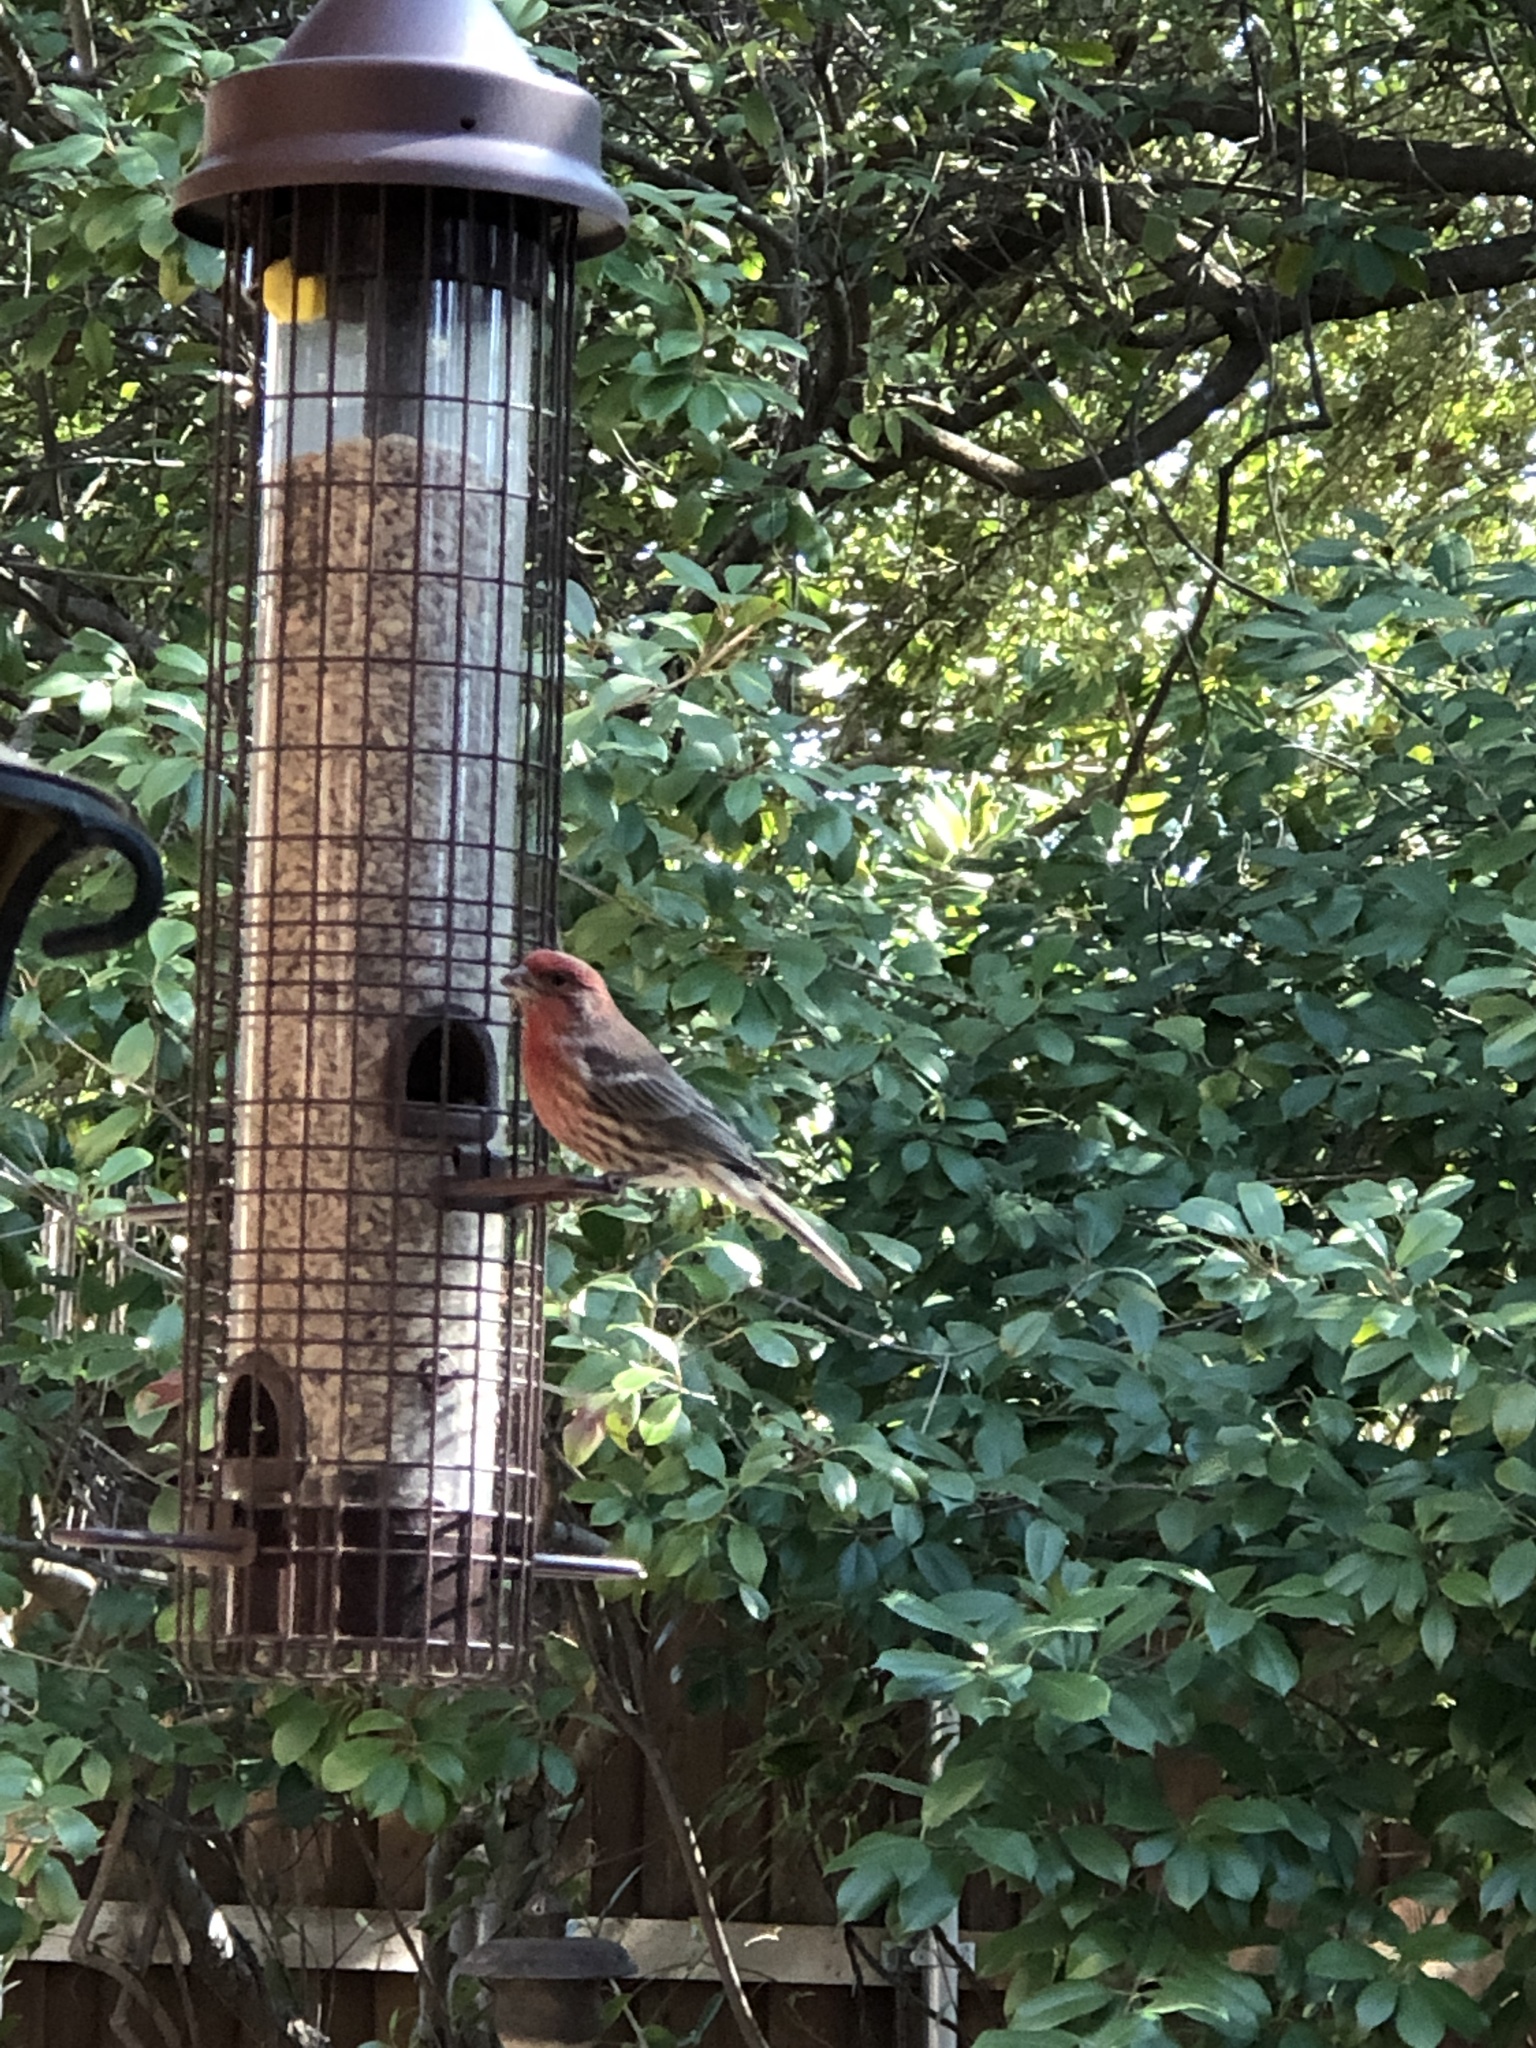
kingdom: Animalia
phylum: Chordata
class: Aves
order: Passeriformes
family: Fringillidae
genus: Haemorhous
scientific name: Haemorhous mexicanus
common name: House finch
